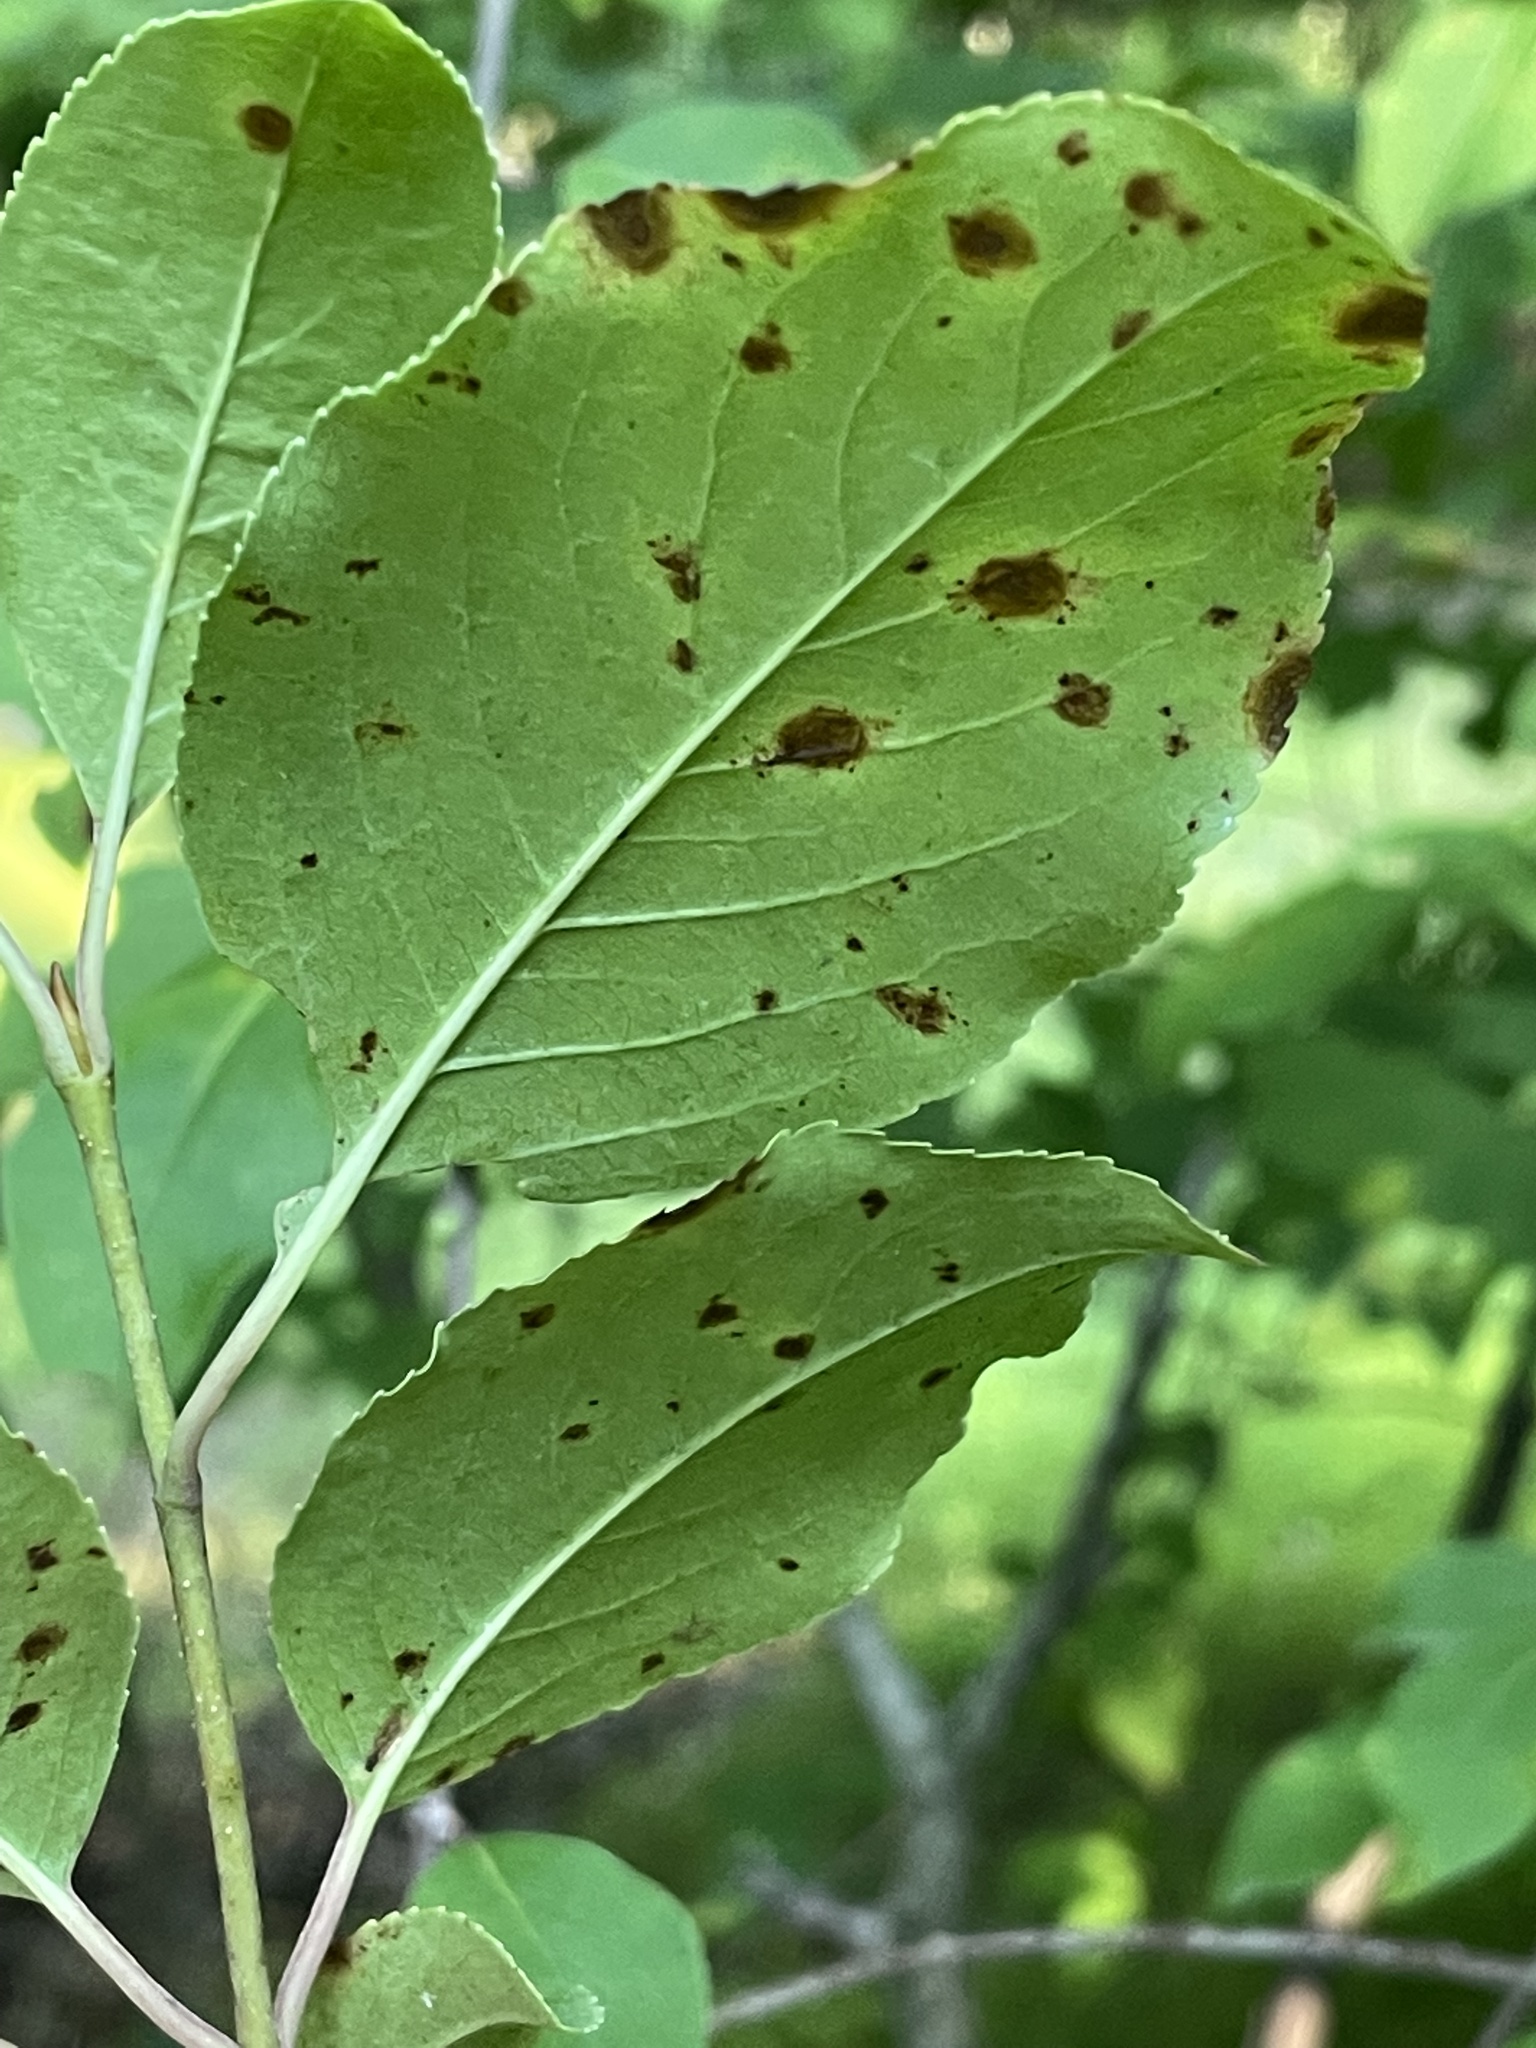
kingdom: Plantae
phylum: Tracheophyta
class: Magnoliopsida
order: Dipsacales
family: Viburnaceae
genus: Viburnum
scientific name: Viburnum prunifolium
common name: Black haw
